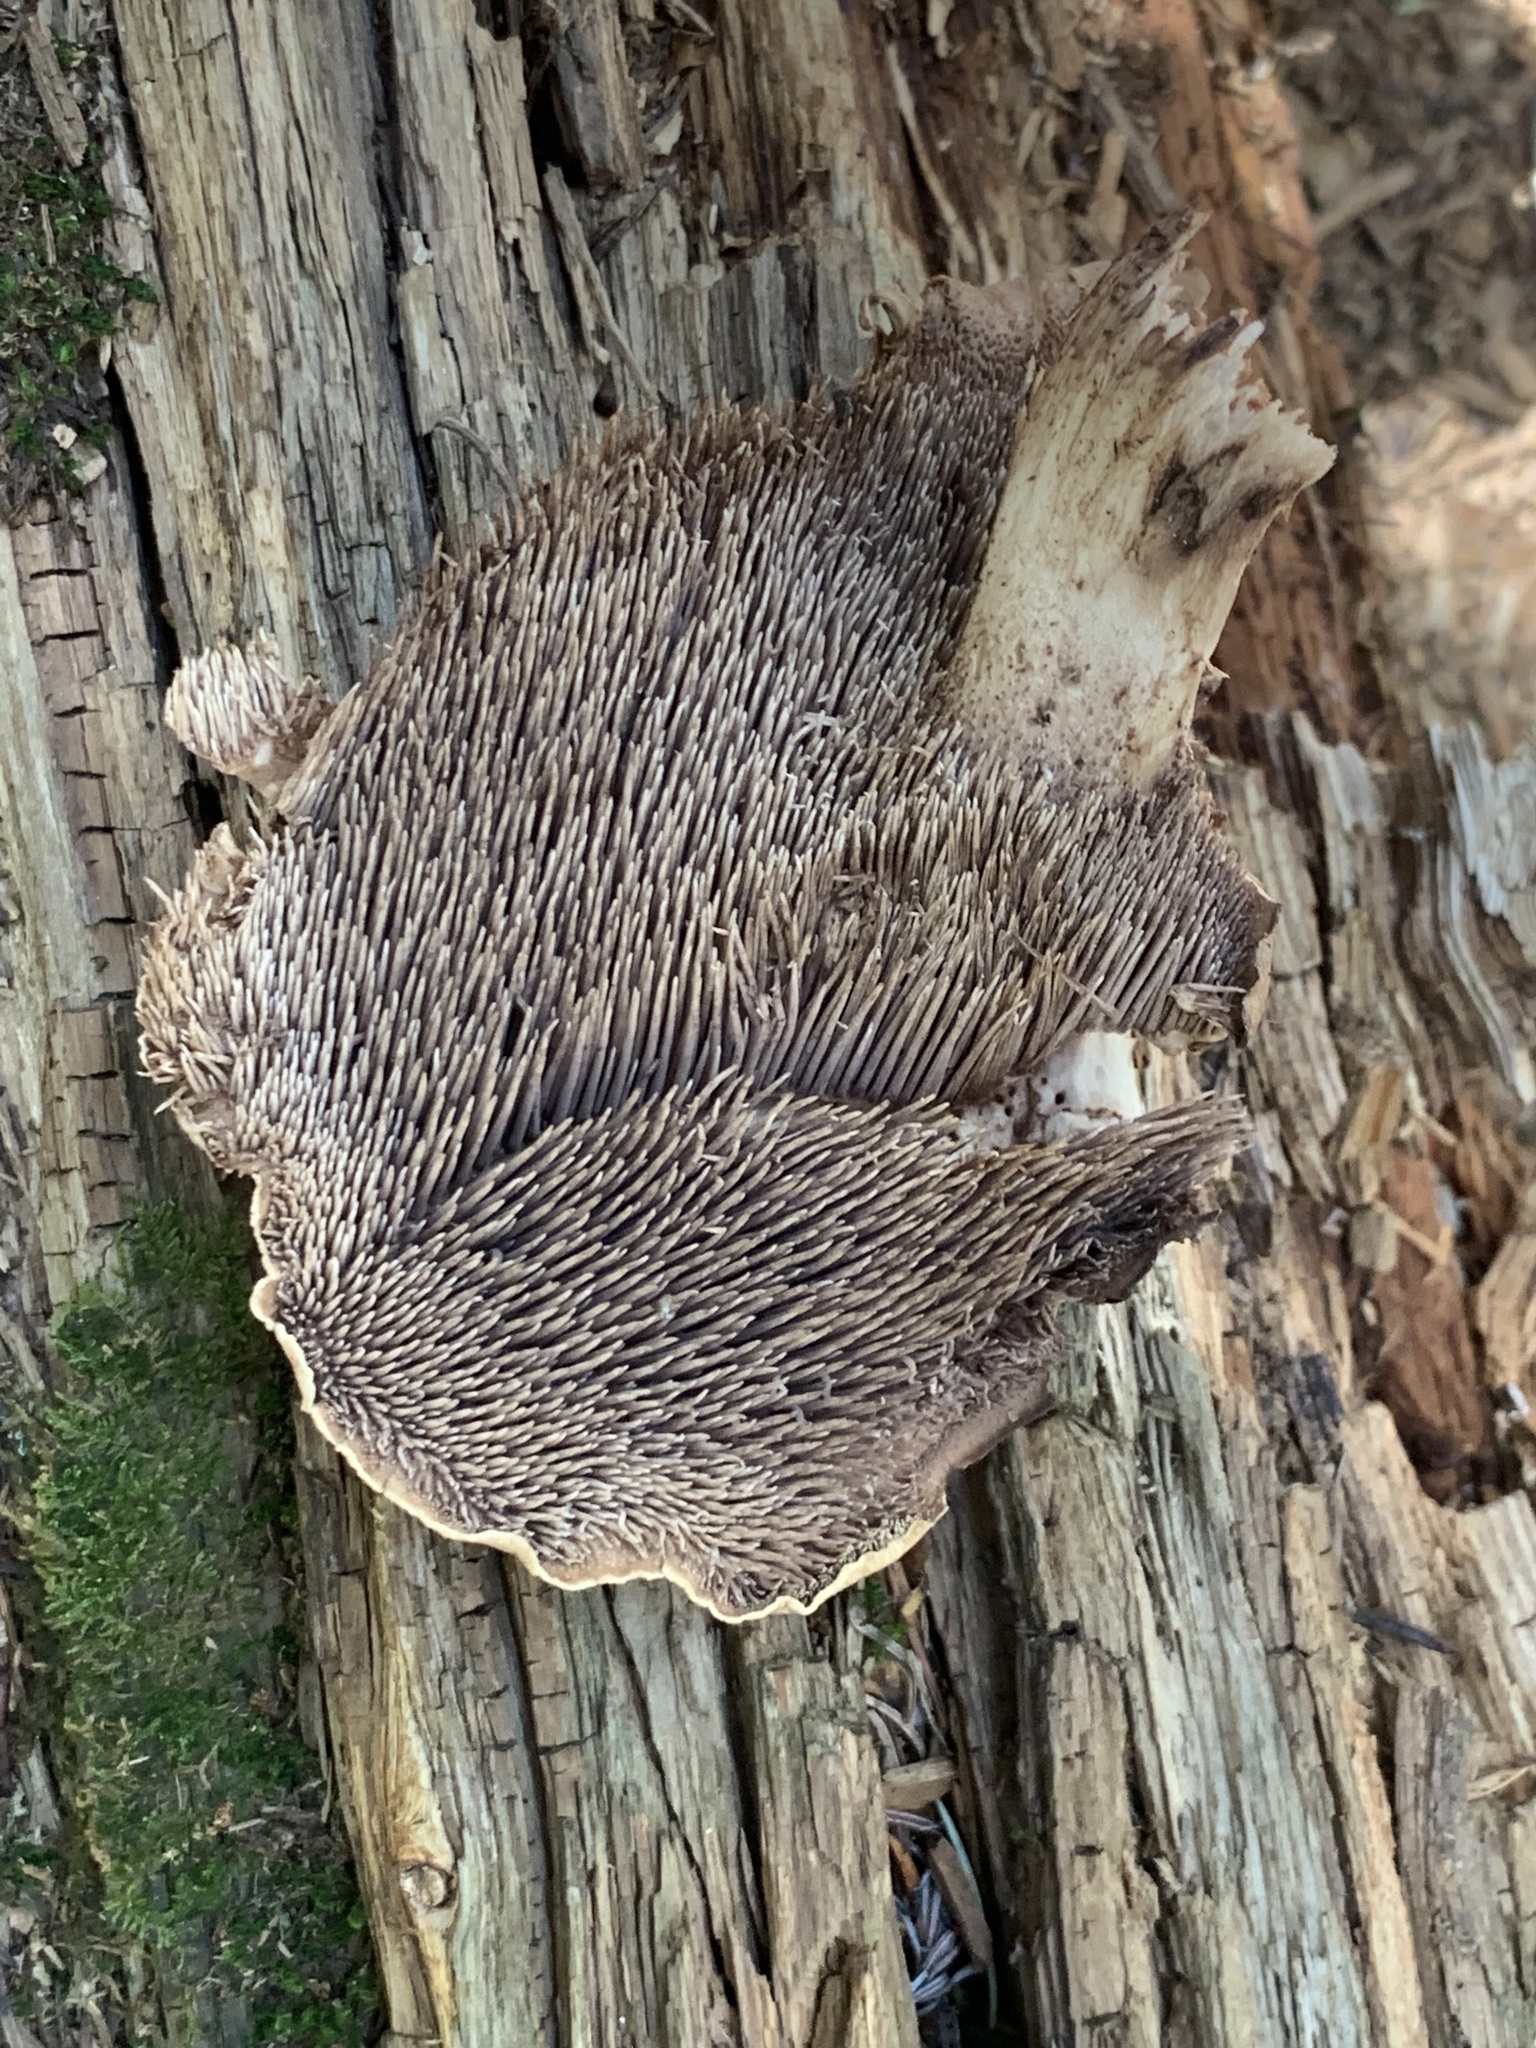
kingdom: Fungi
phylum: Basidiomycota
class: Agaricomycetes
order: Thelephorales
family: Bankeraceae
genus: Sarcodon
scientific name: Sarcodon imbricatus
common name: Shingled hedgehog
